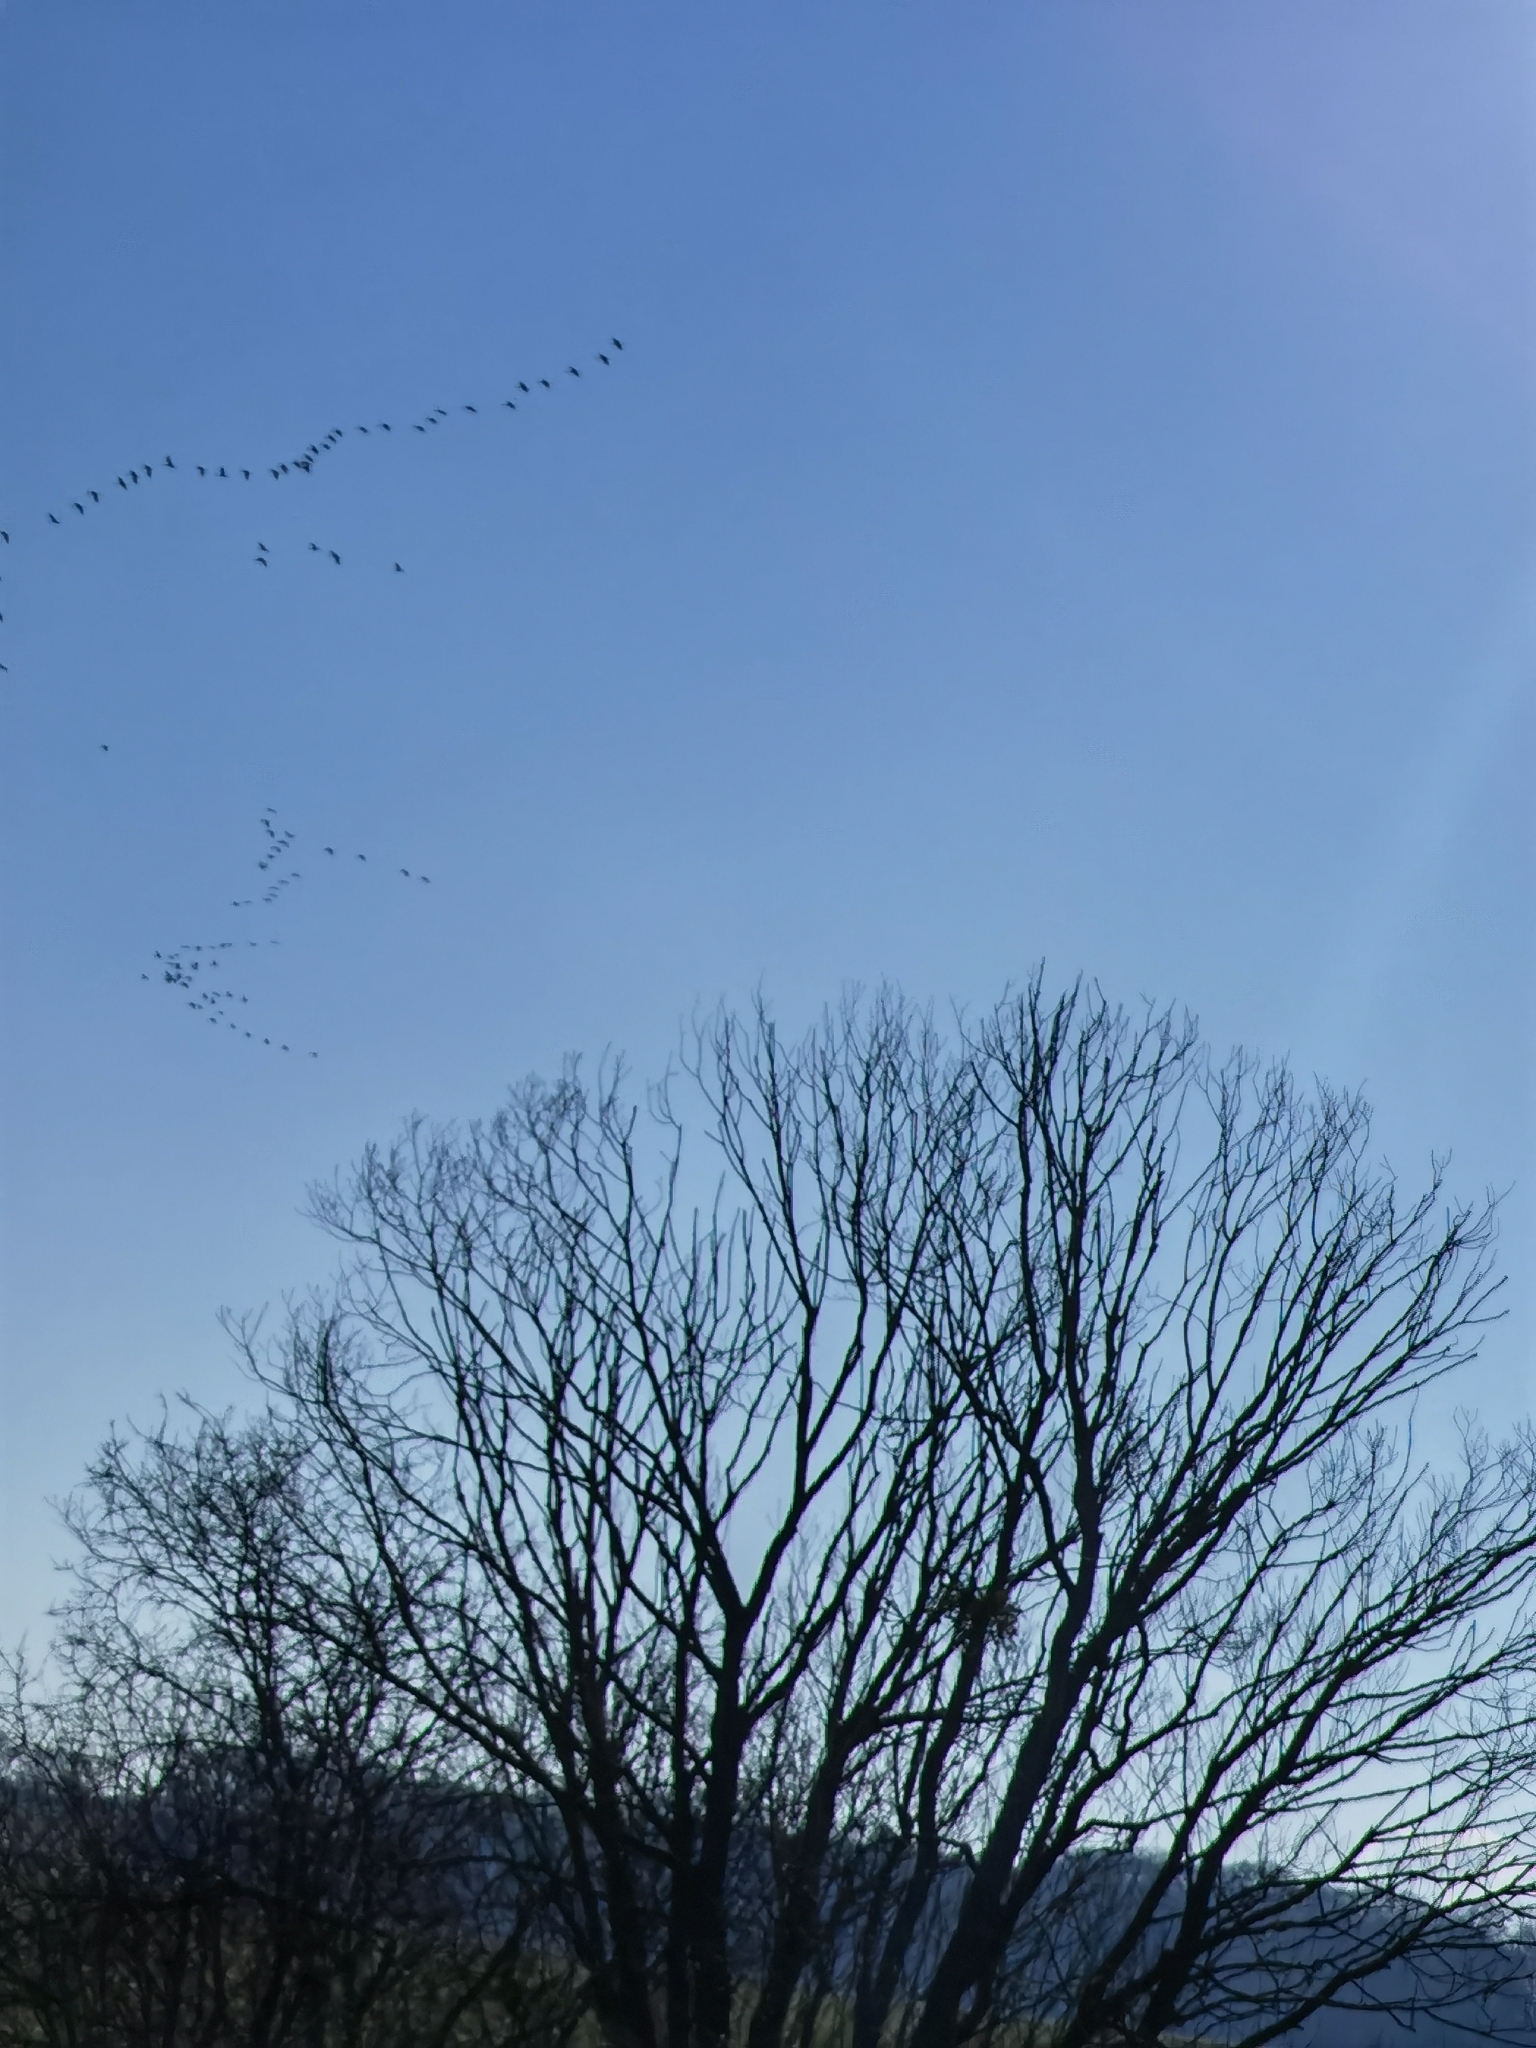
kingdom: Animalia
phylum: Chordata
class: Aves
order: Gruiformes
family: Gruidae
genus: Grus
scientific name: Grus grus
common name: Common crane
